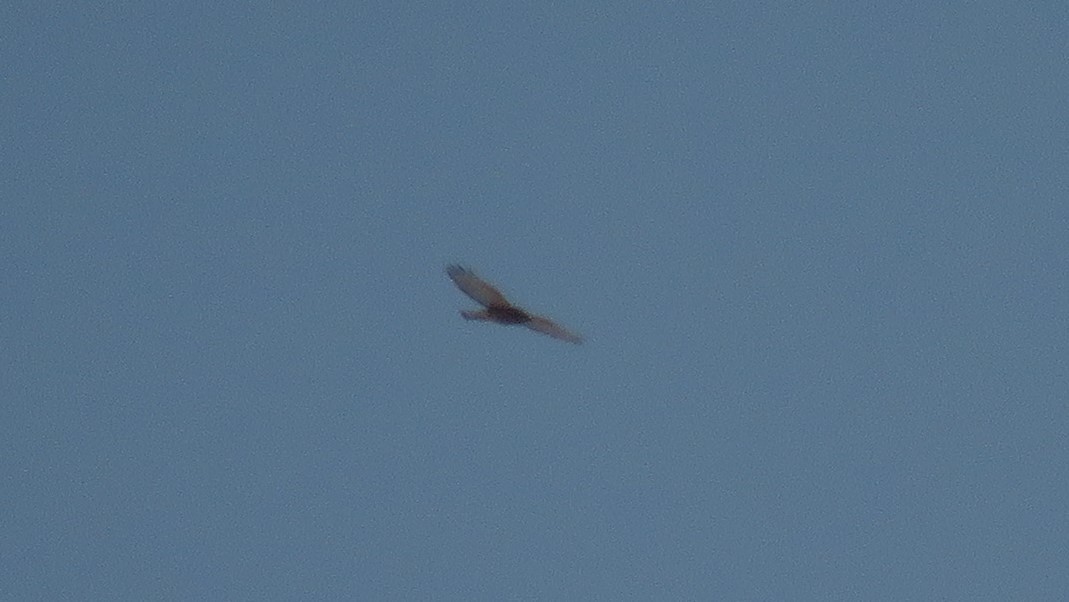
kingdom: Animalia
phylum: Chordata
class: Aves
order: Accipitriformes
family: Accipitridae
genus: Buteo
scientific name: Buteo lineatus
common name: Red-shouldered hawk
